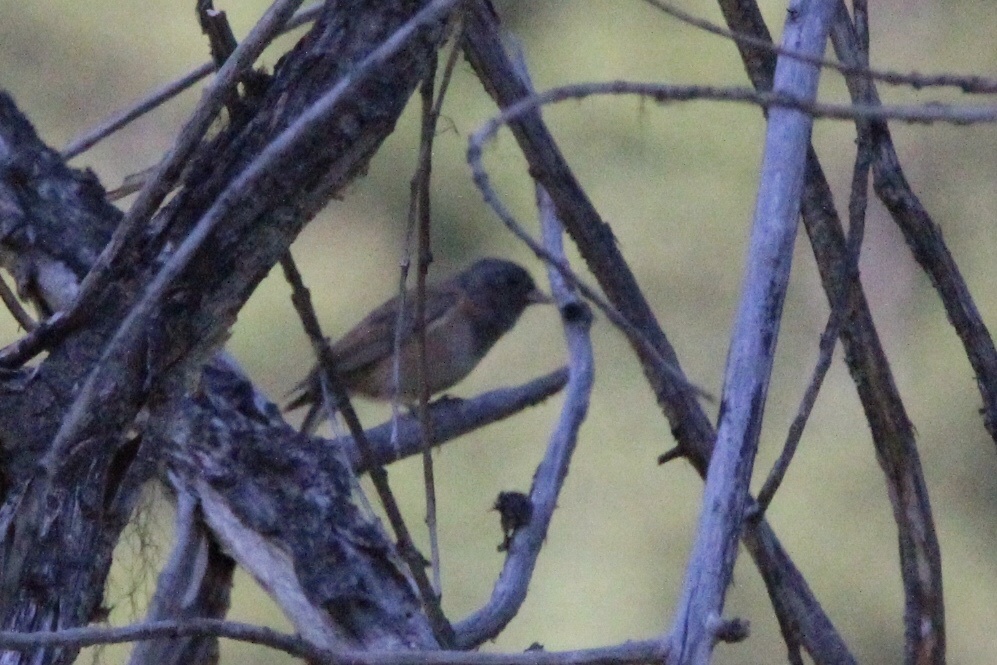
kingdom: Animalia
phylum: Chordata
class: Aves
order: Passeriformes
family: Passerellidae
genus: Junco
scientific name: Junco hyemalis
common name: Dark-eyed junco
